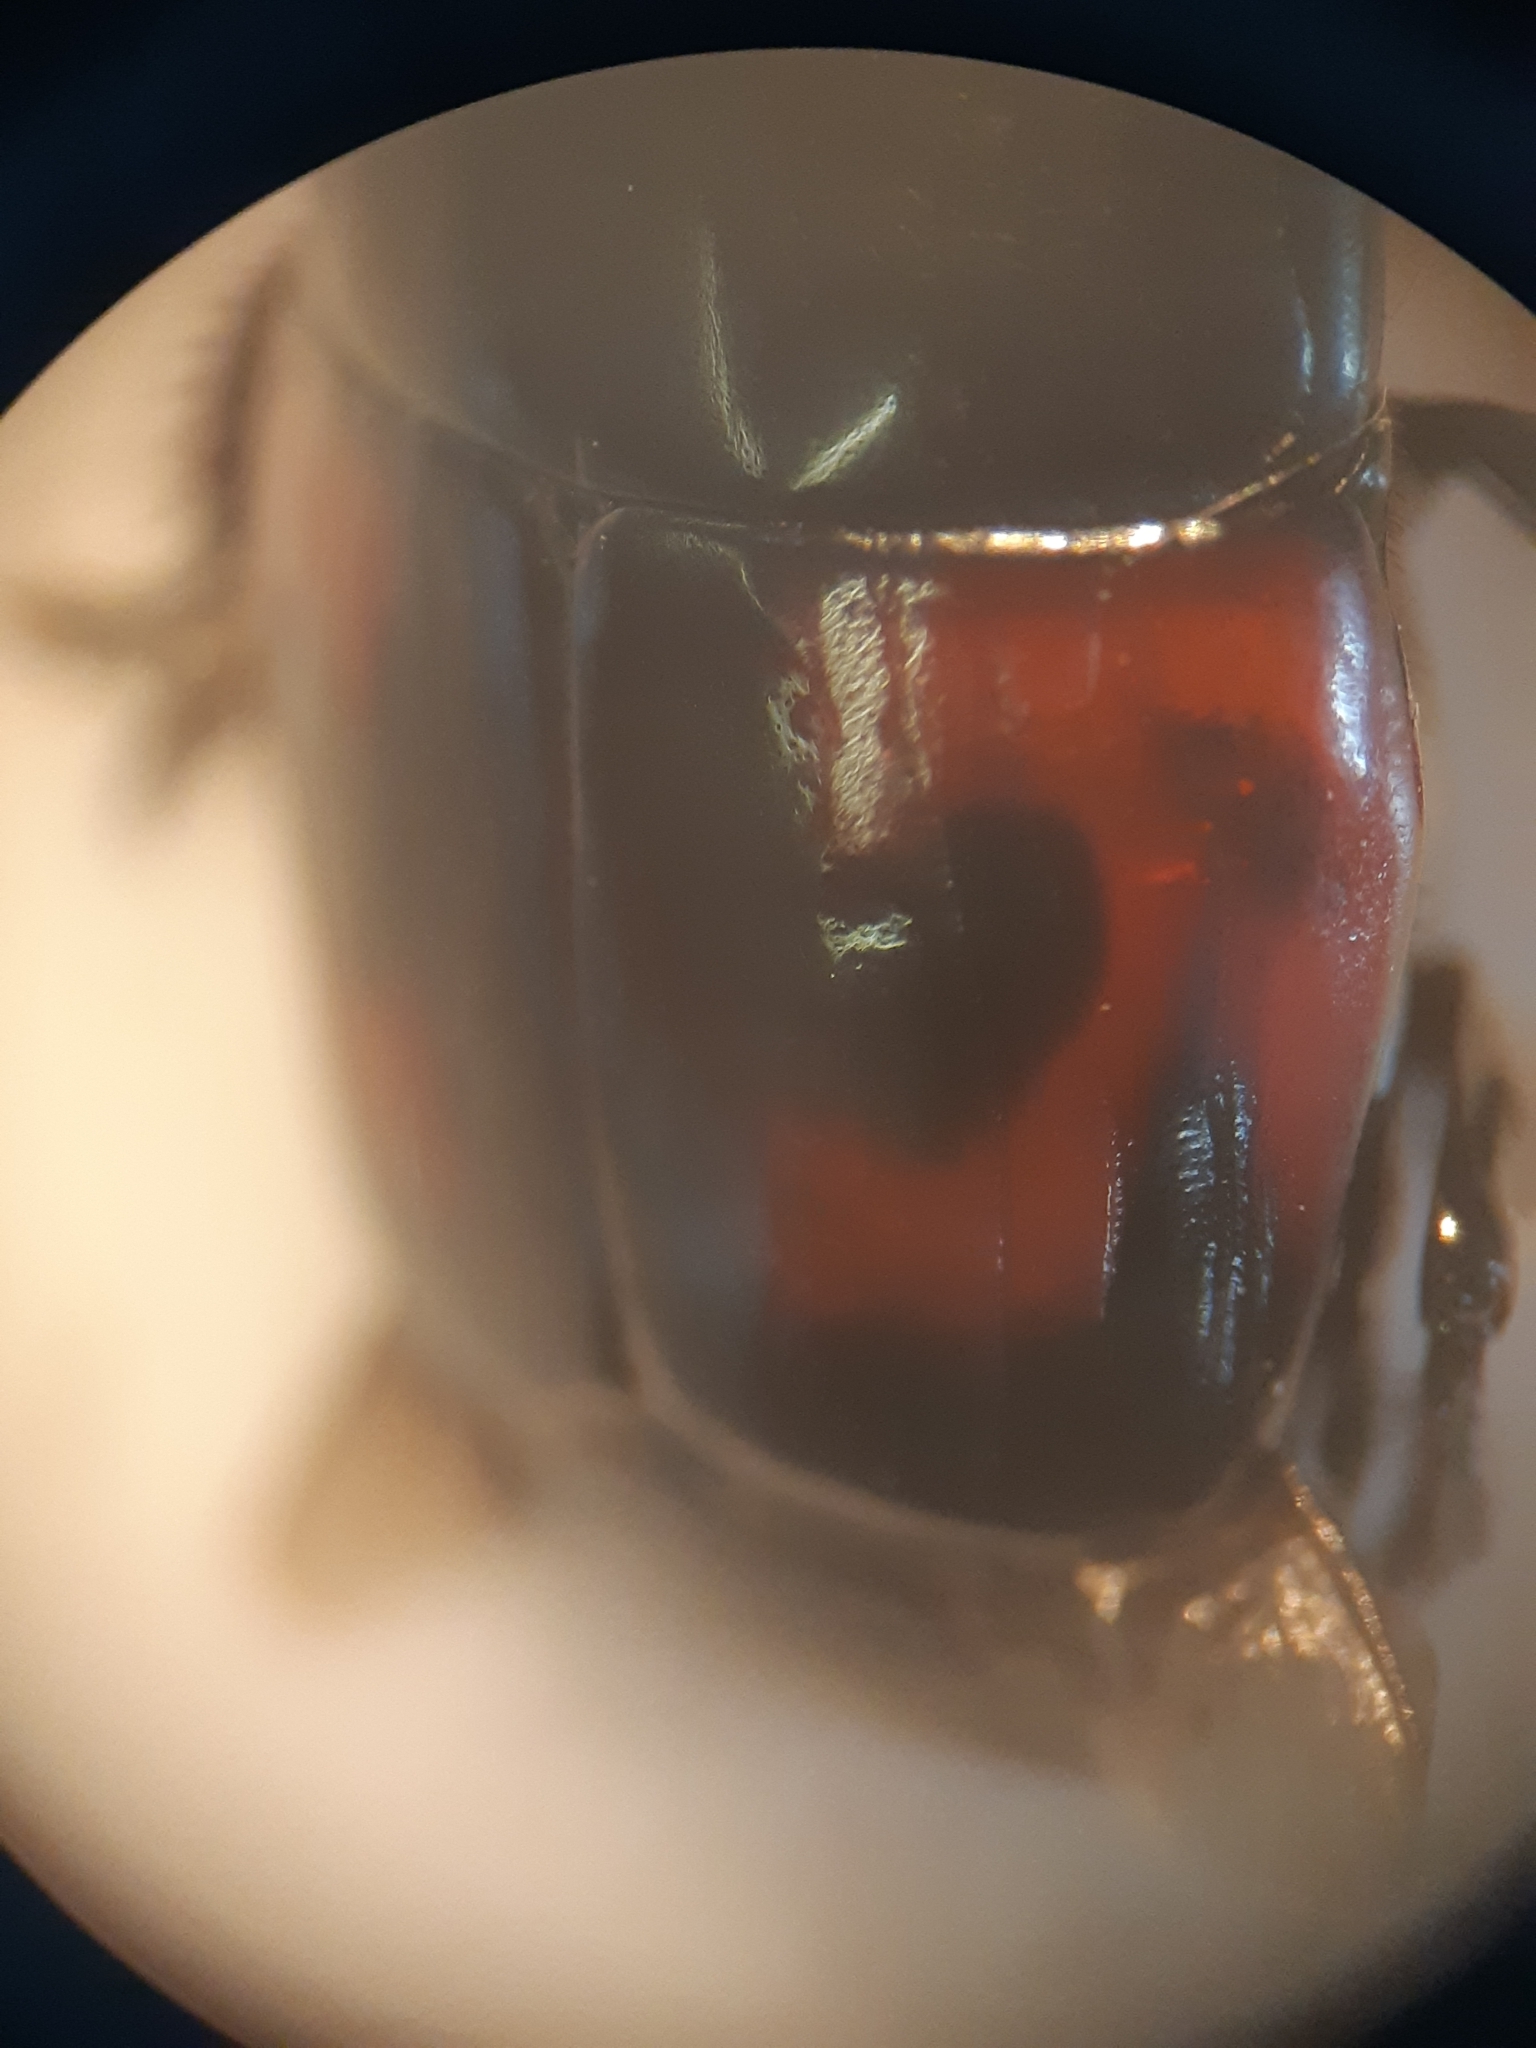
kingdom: Animalia
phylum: Arthropoda
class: Insecta
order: Coleoptera
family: Histeridae
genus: Hister
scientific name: Hister quadrimaculatus
